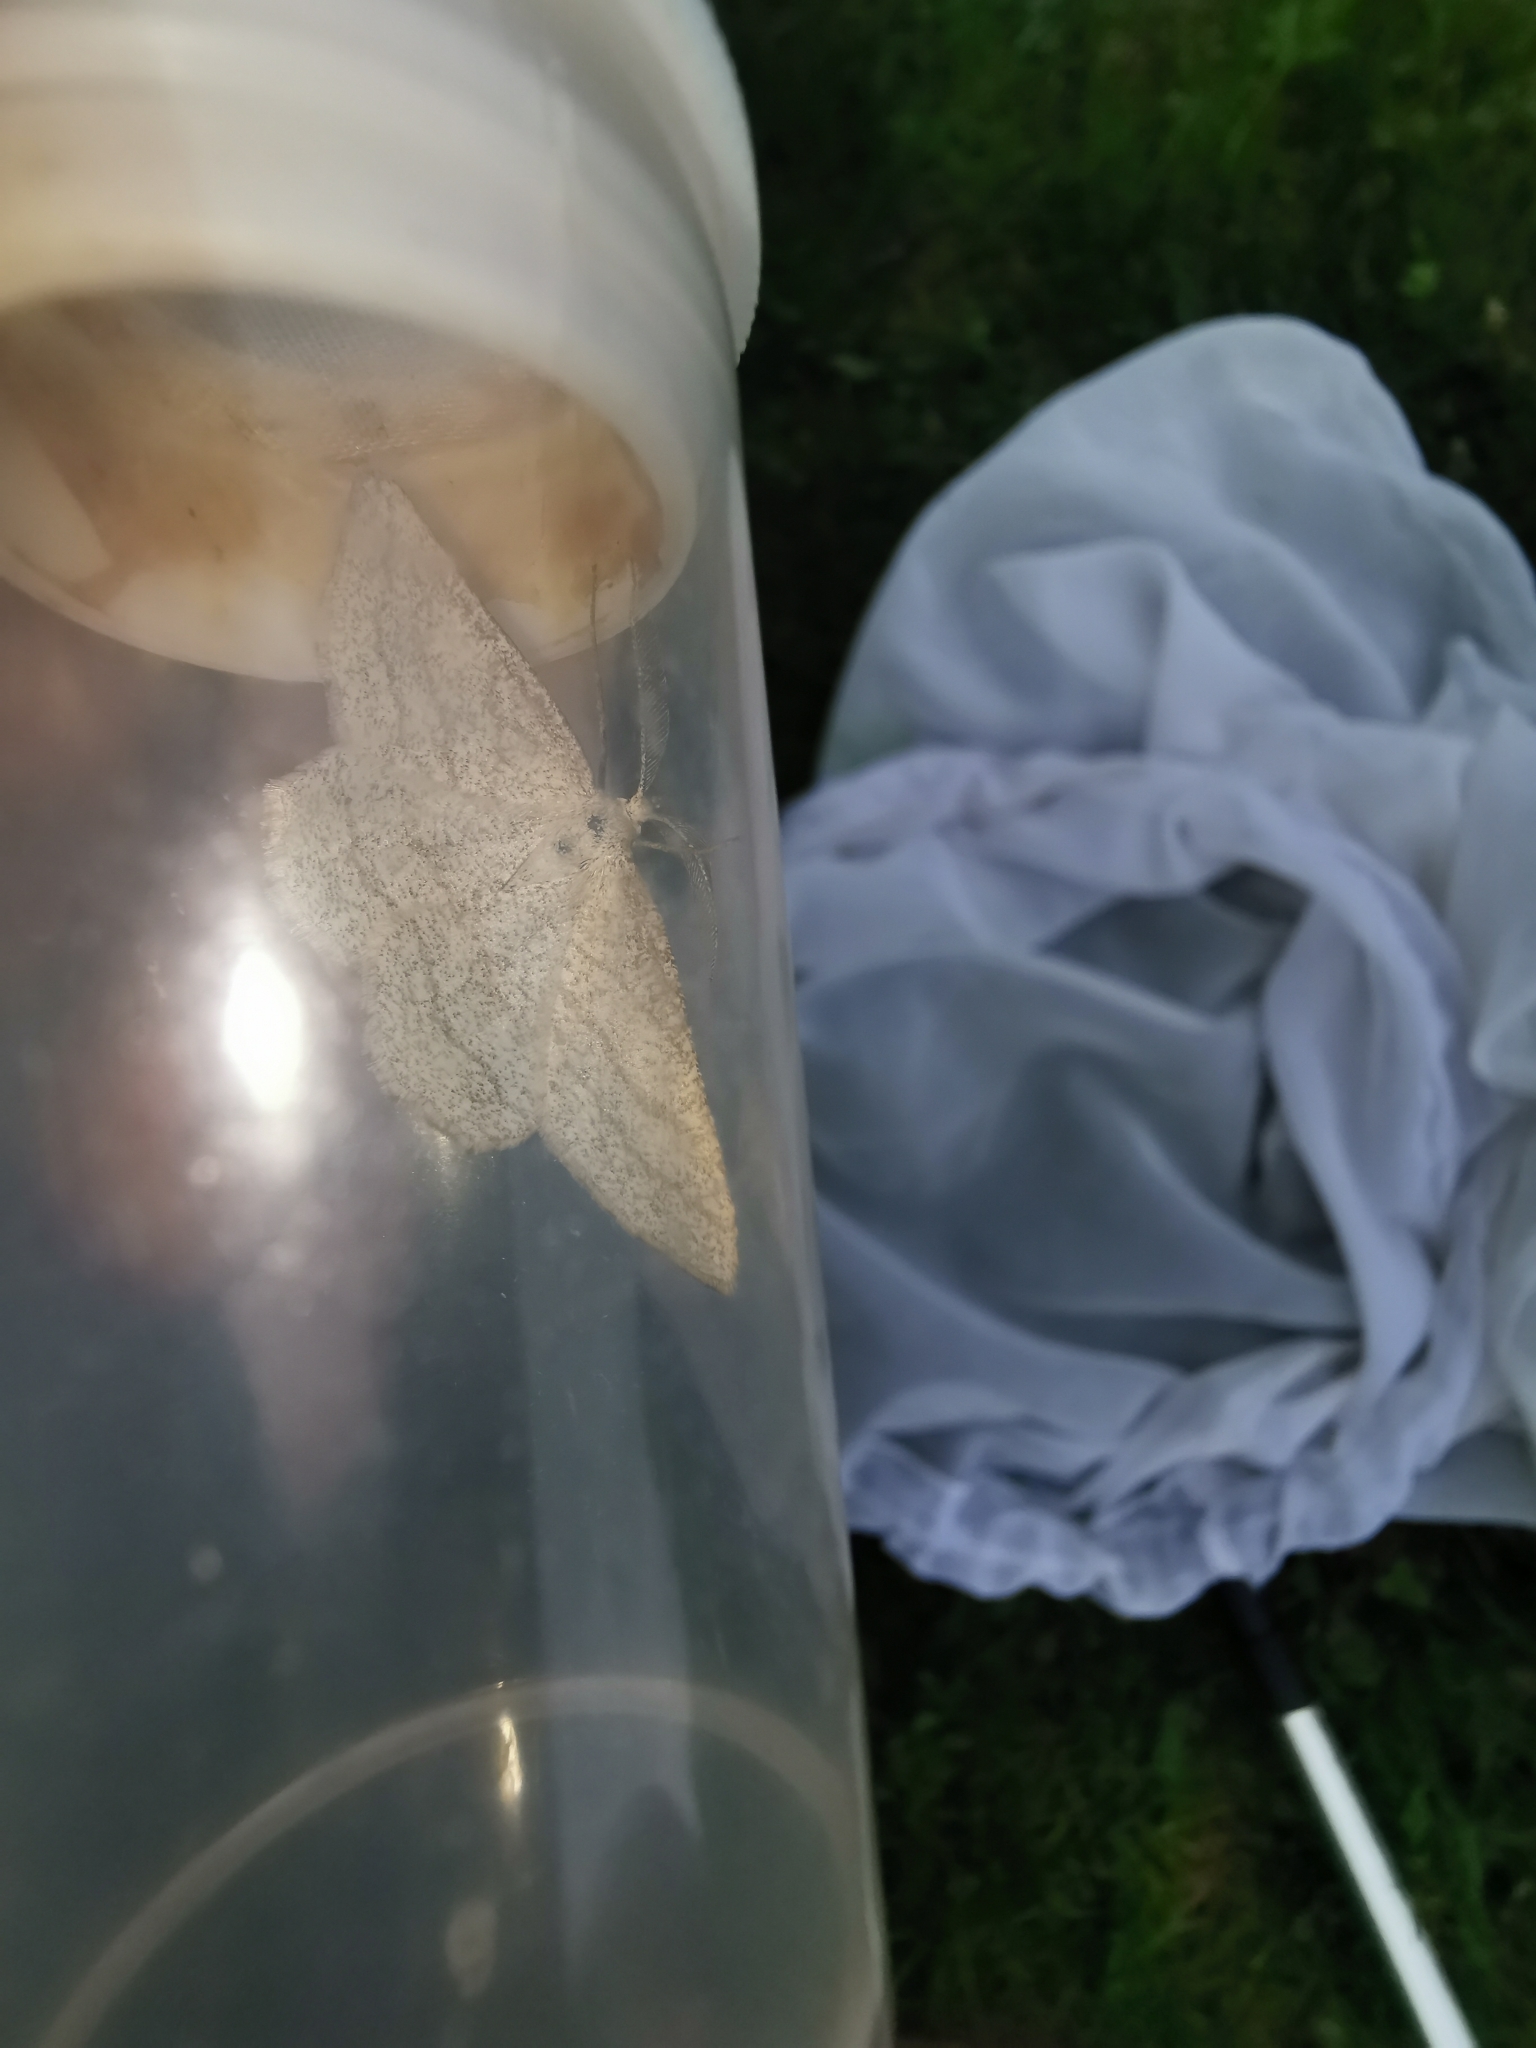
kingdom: Animalia
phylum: Arthropoda
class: Insecta
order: Lepidoptera
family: Geometridae
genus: Perconia
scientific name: Perconia strigillaria
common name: Grass wave
